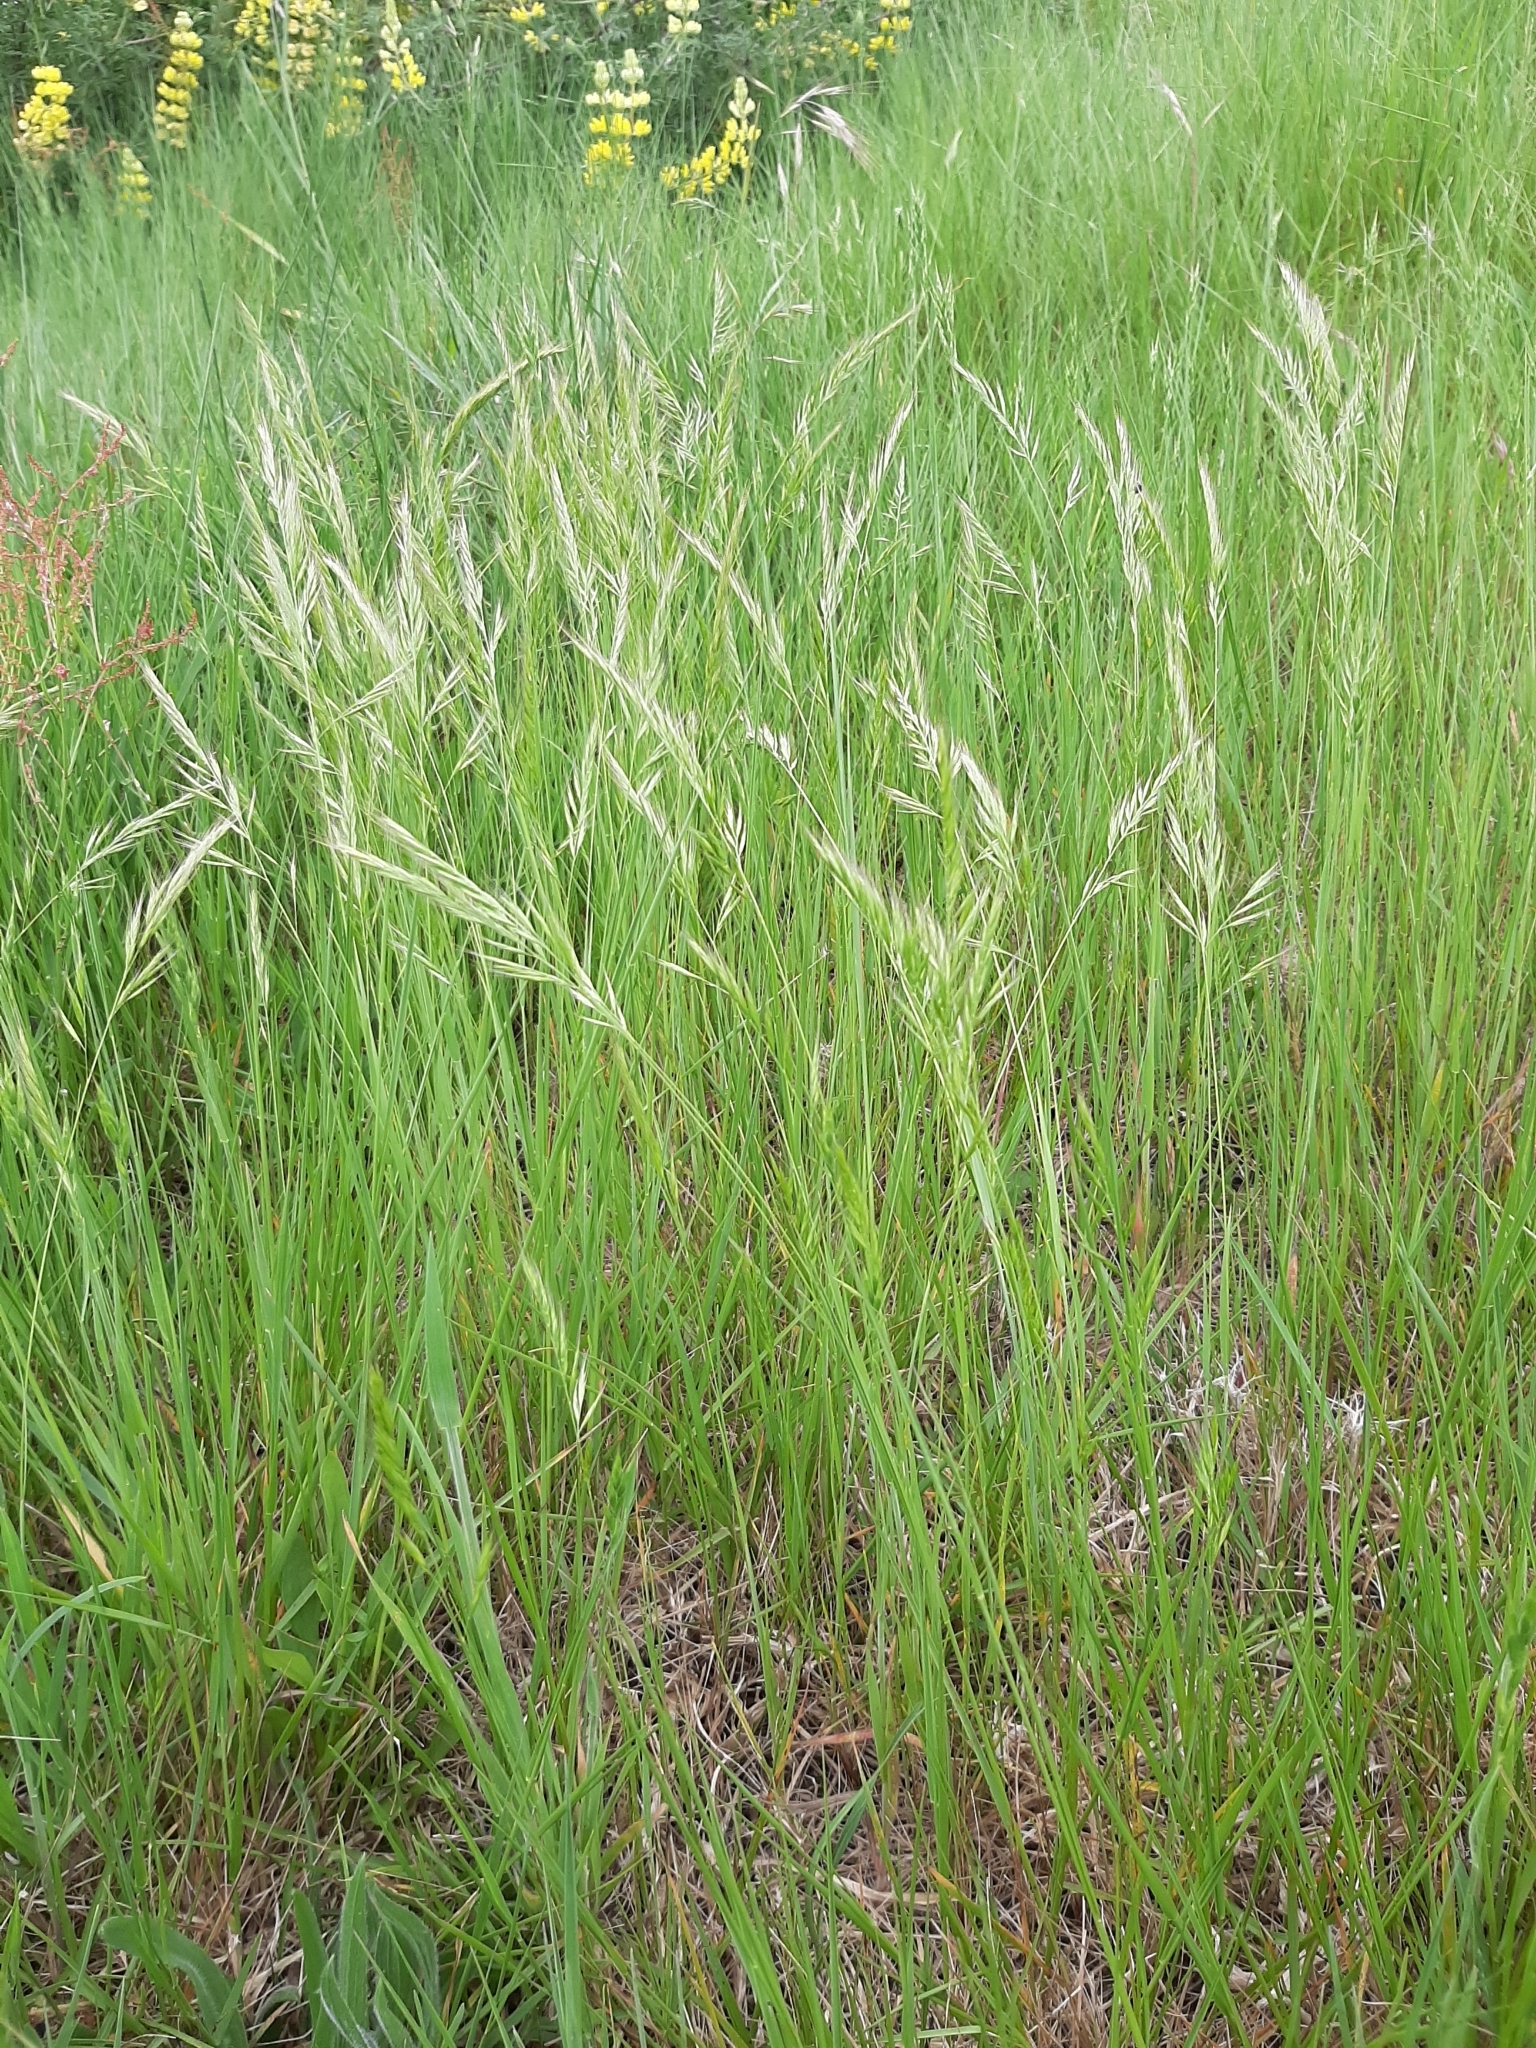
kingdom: Plantae
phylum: Tracheophyta
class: Liliopsida
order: Poales
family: Poaceae
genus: Festuca
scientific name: Festuca myuros
